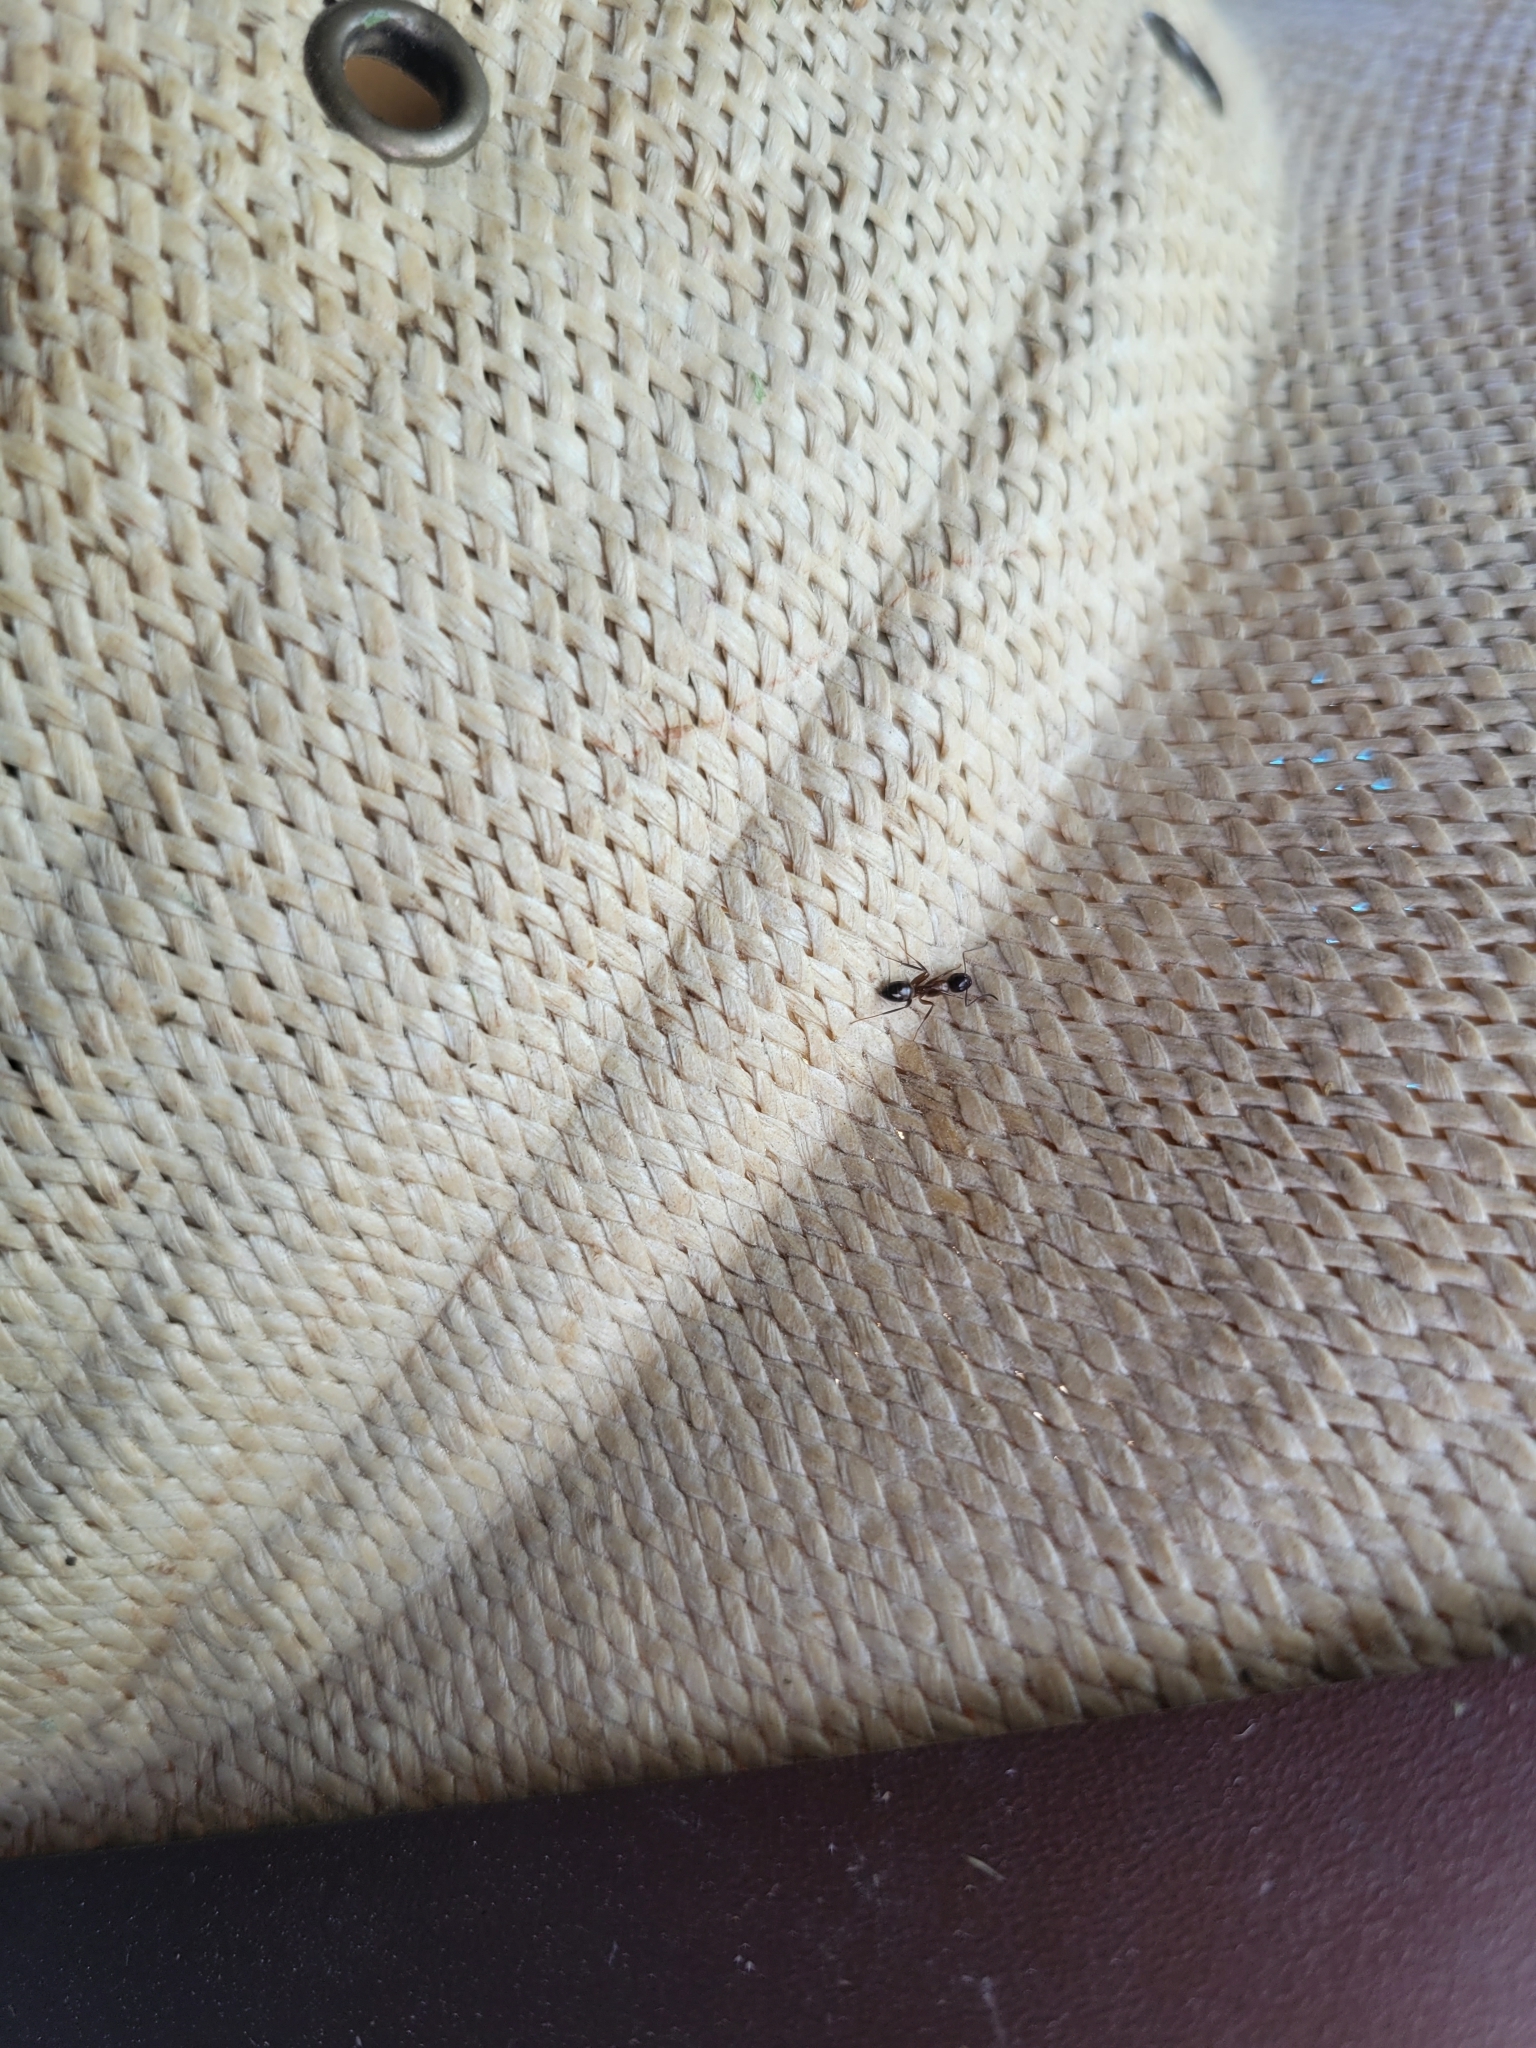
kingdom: Animalia
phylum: Arthropoda
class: Insecta
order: Hymenoptera
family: Formicidae
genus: Camponotus
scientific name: Camponotus nearcticus
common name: Smaller carpenter ant
